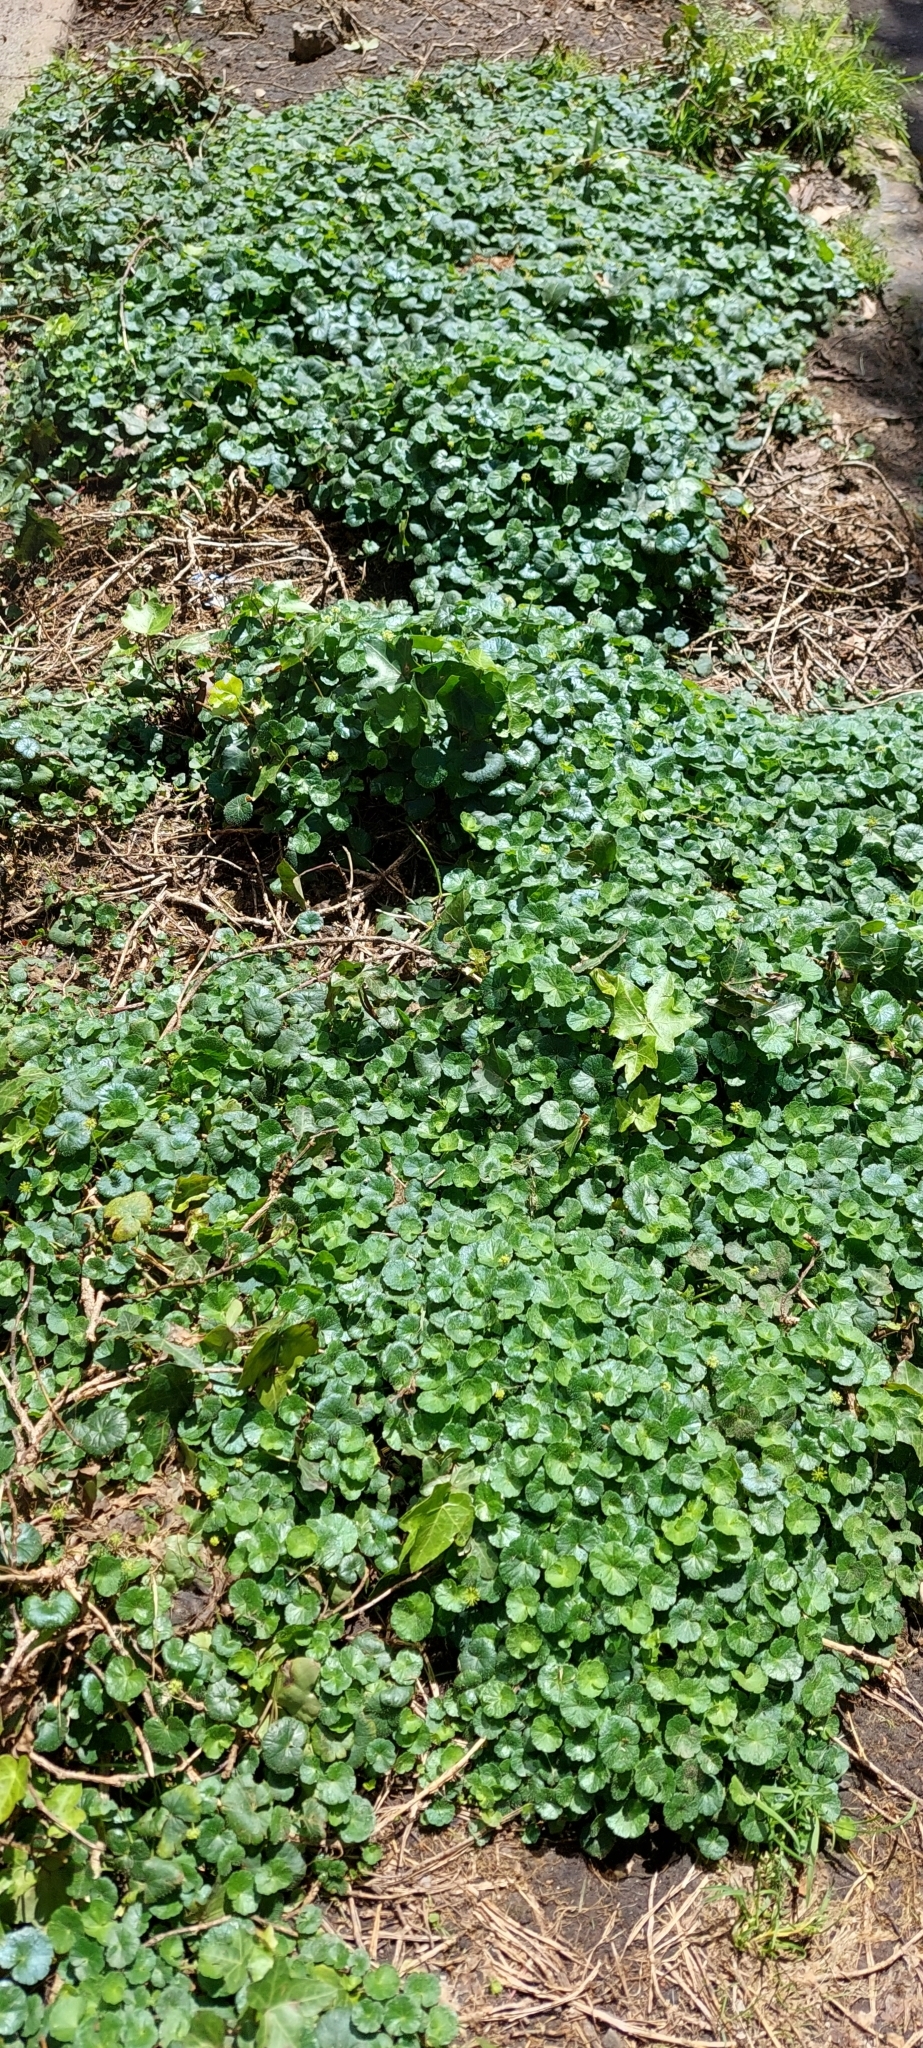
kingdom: Plantae
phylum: Tracheophyta
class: Magnoliopsida
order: Apiales
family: Araliaceae
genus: Hydrocotyle
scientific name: Hydrocotyle bonplandii
